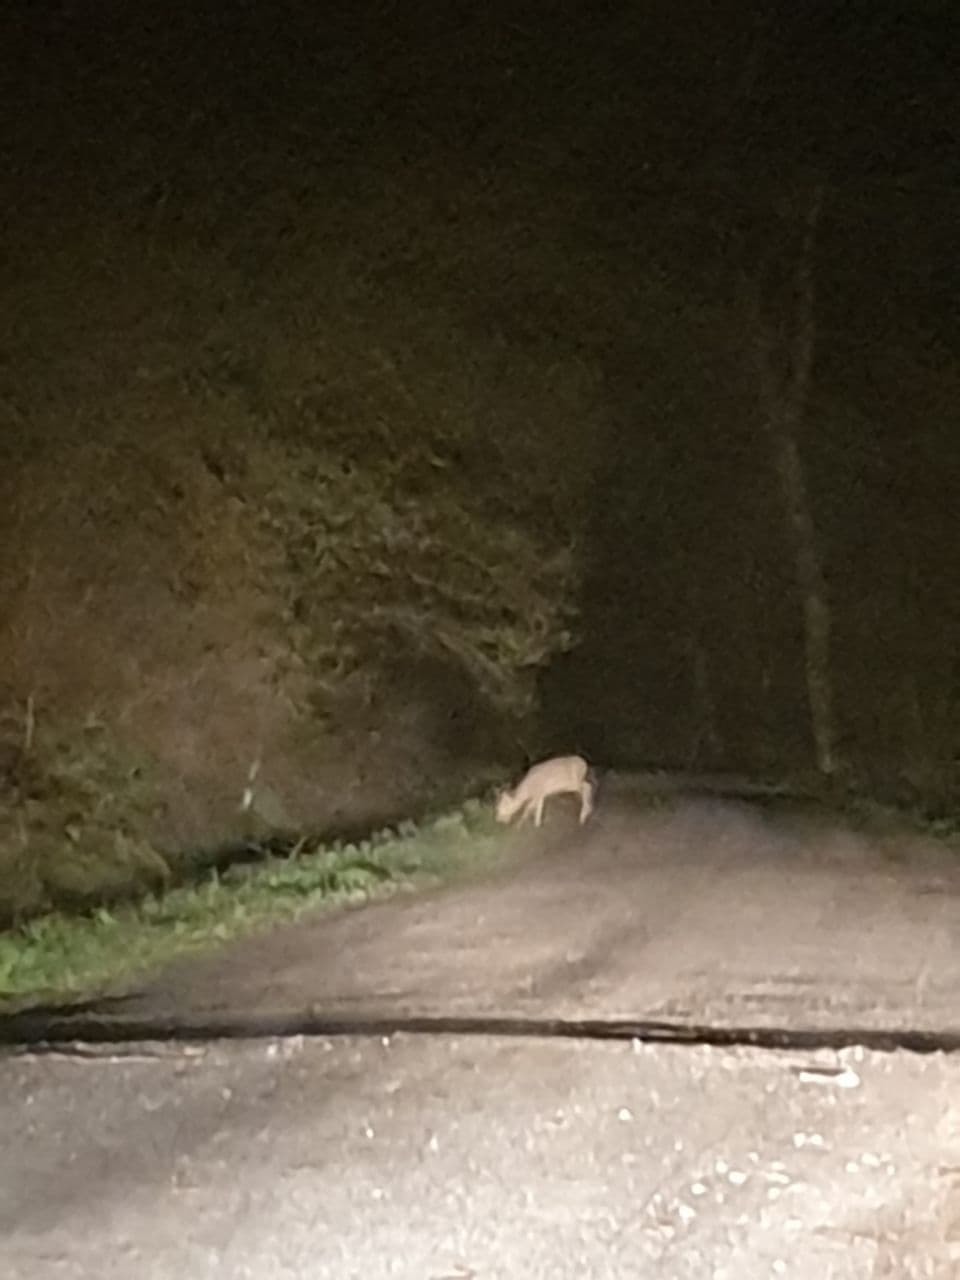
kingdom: Animalia
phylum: Chordata
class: Mammalia
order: Artiodactyla
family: Cervidae
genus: Capreolus
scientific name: Capreolus capreolus
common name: Western roe deer
